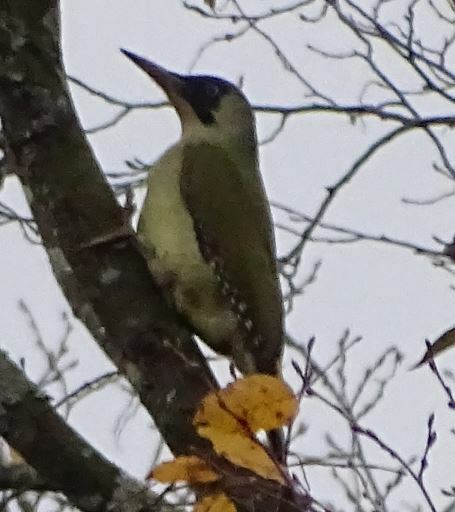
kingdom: Animalia
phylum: Chordata
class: Aves
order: Piciformes
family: Picidae
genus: Picus
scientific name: Picus viridis
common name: European green woodpecker
